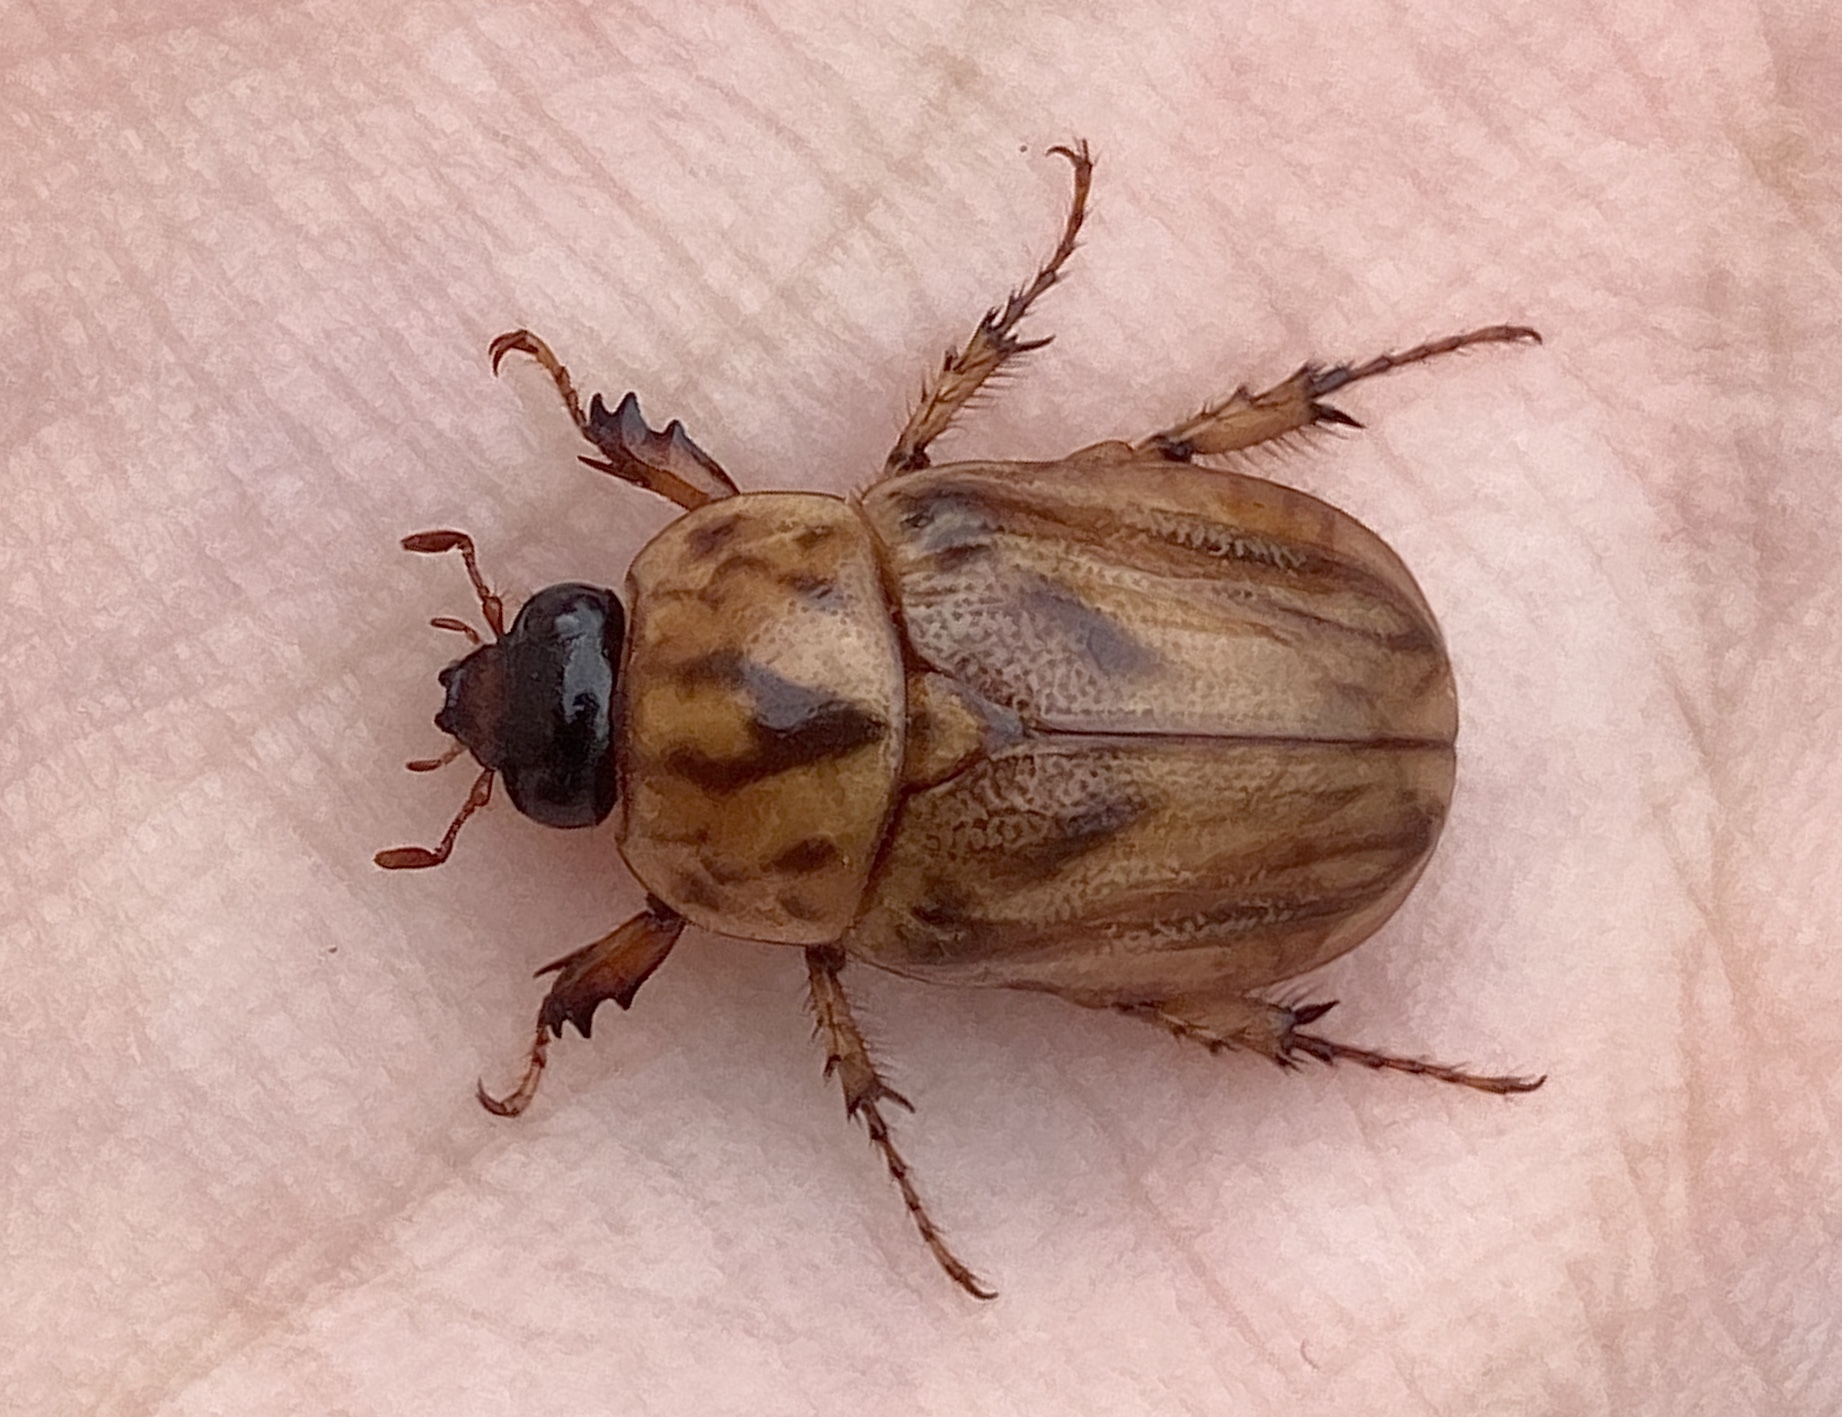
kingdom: Animalia
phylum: Arthropoda
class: Insecta
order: Coleoptera
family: Scarabaeidae
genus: Cyclocephala
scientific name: Cyclocephala signaticollis
